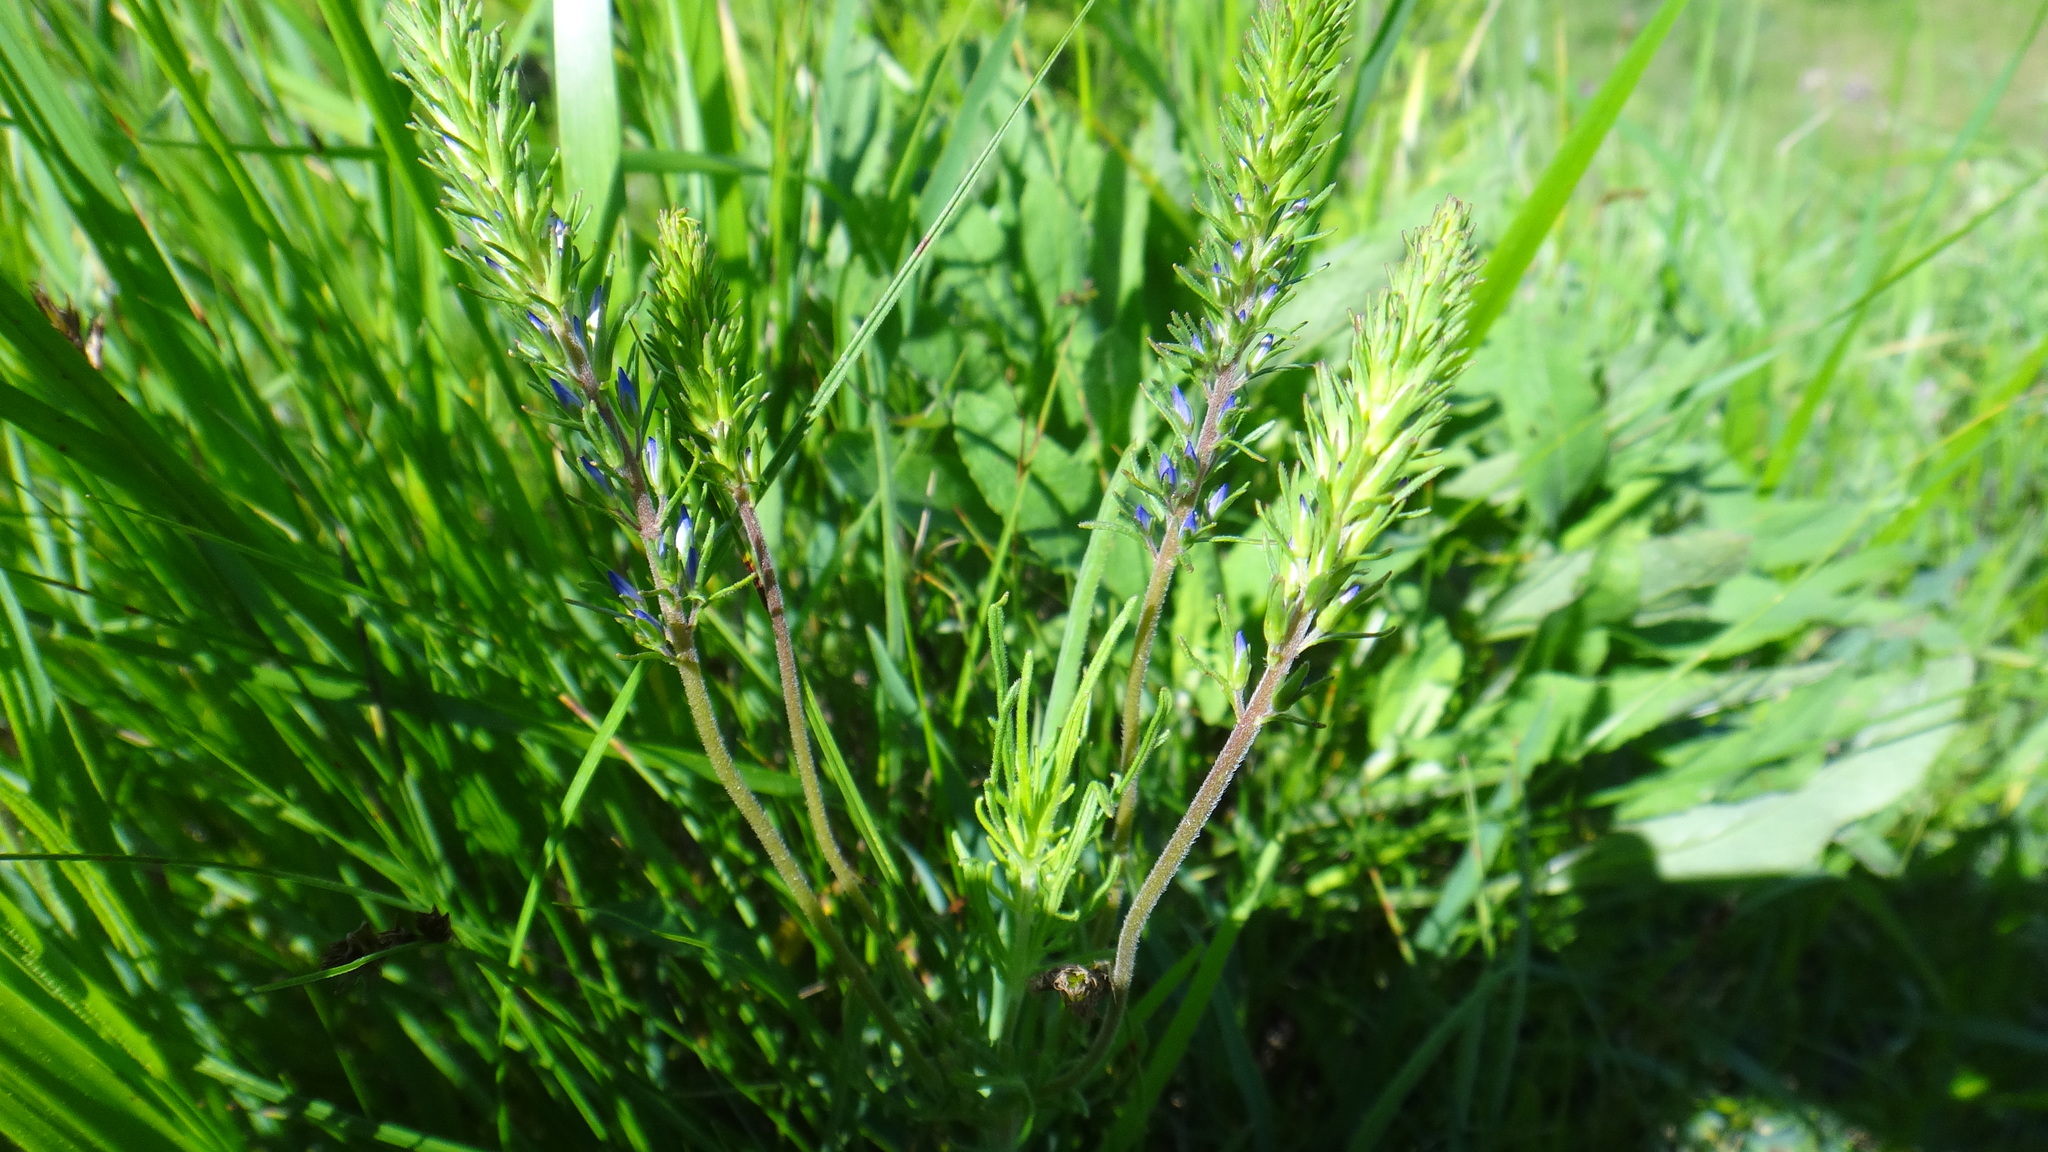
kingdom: Plantae
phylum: Tracheophyta
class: Magnoliopsida
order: Lamiales
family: Plantaginaceae
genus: Veronica
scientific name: Veronica austriaca
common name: Large speedwell
